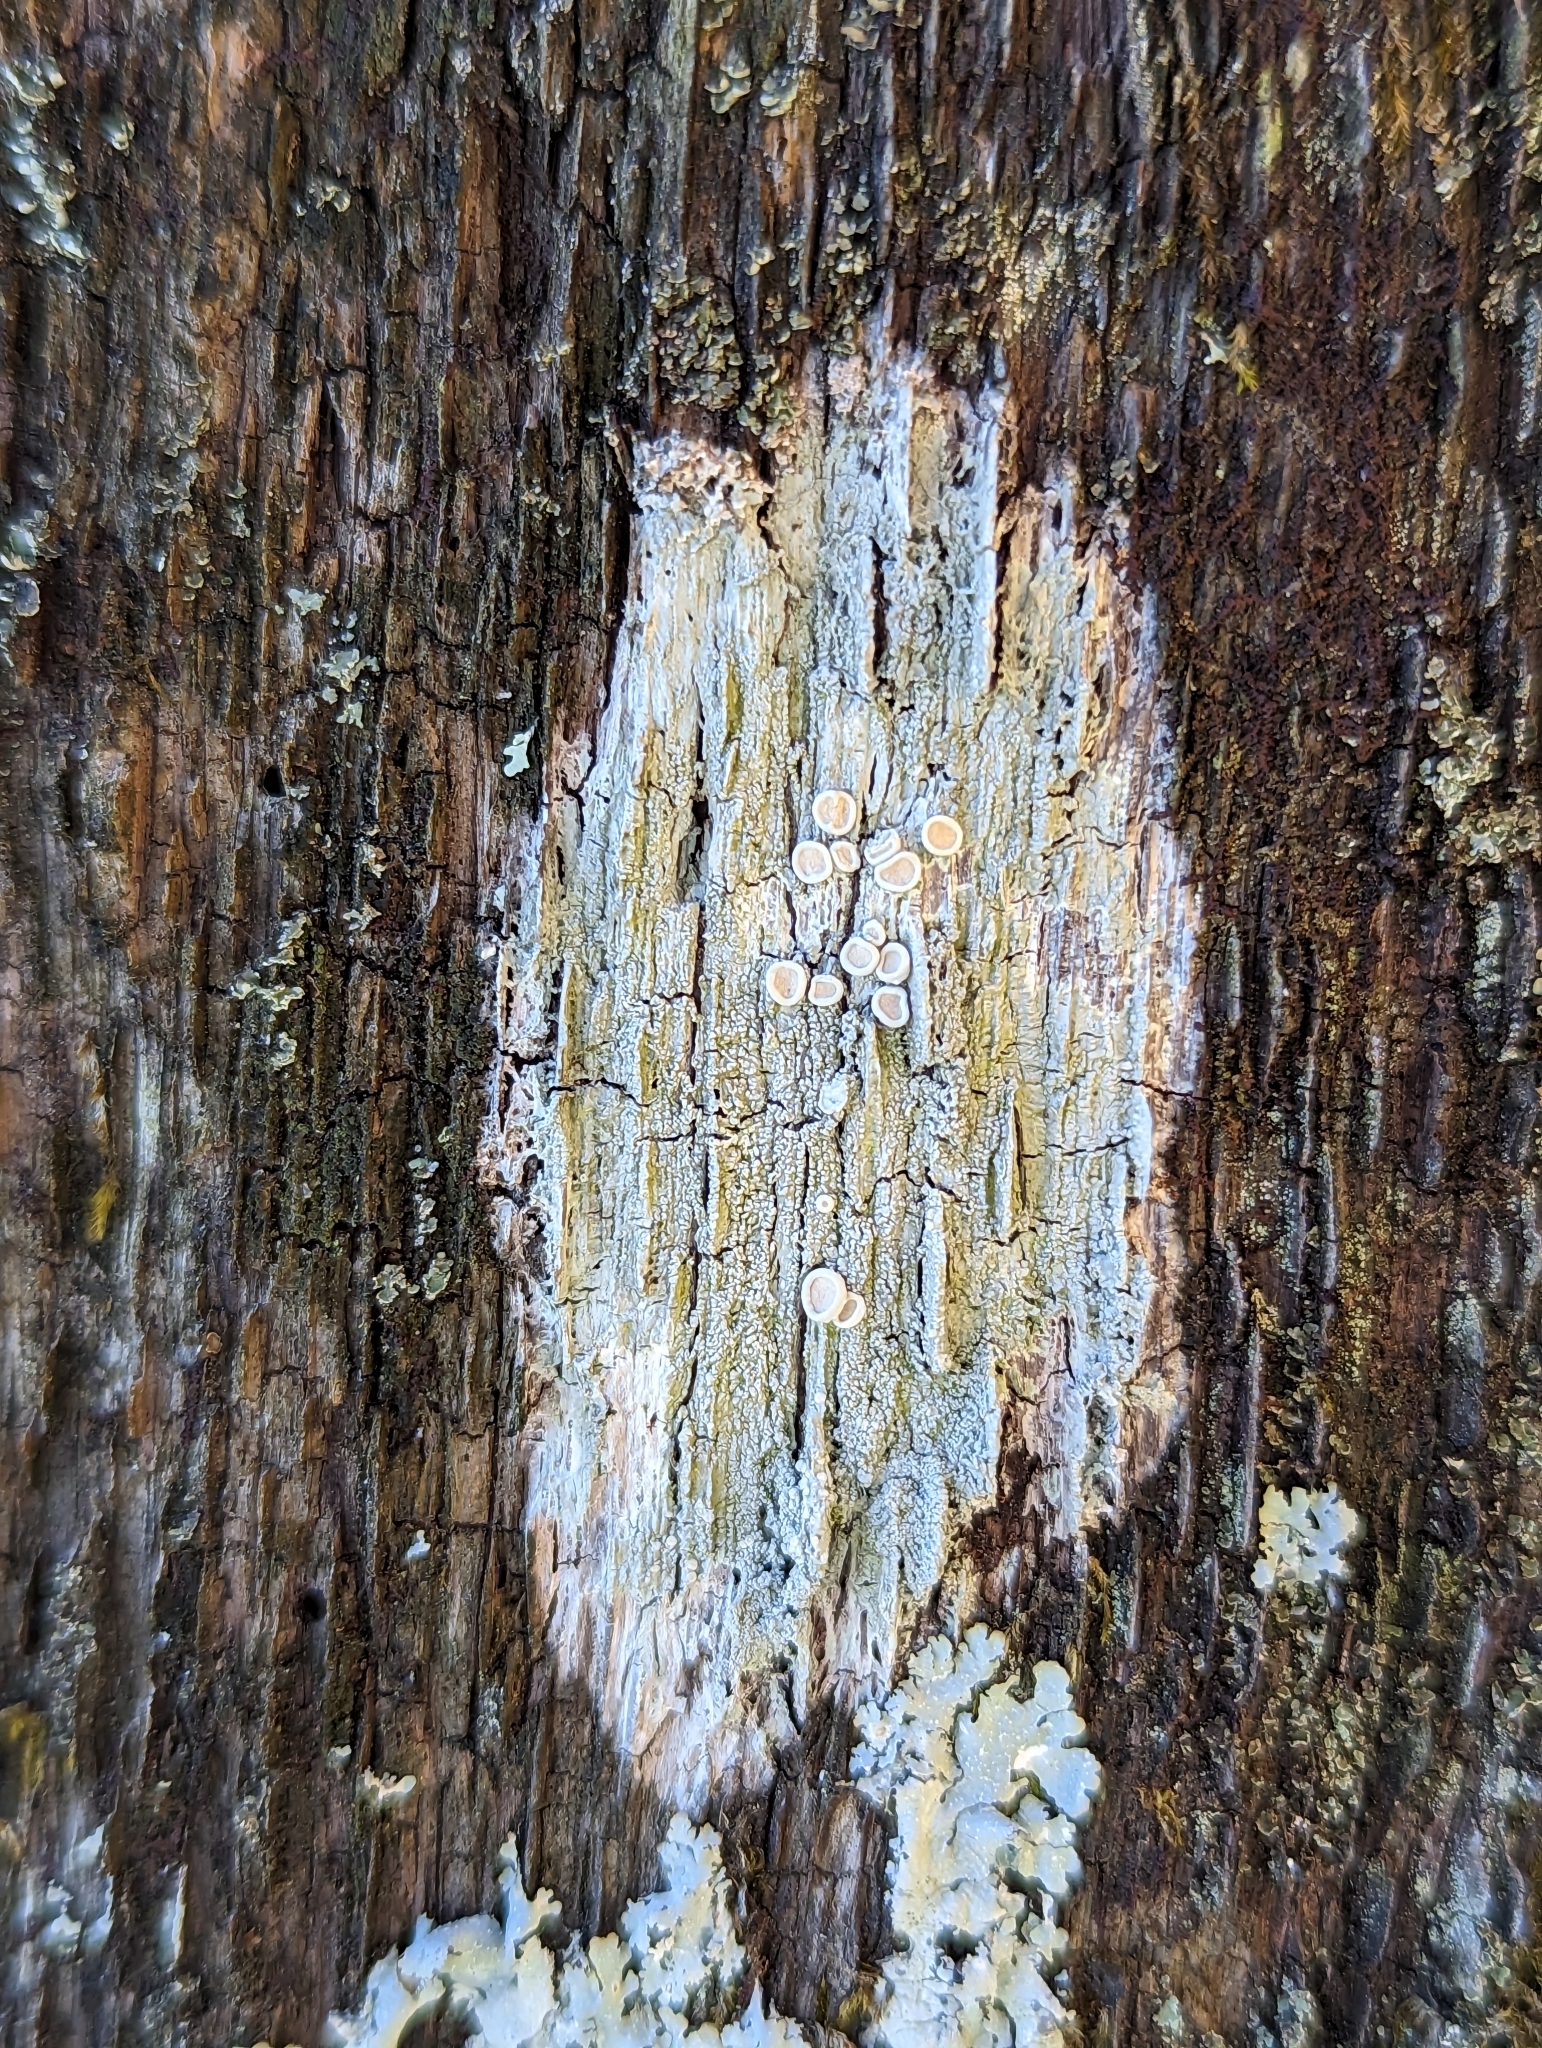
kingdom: Fungi
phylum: Ascomycota
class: Lecanoromycetes
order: Pertusariales
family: Ochrolechiaceae
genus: Ochrolechia
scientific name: Ochrolechia pseudopallescens
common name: Pallid saucer lichen
